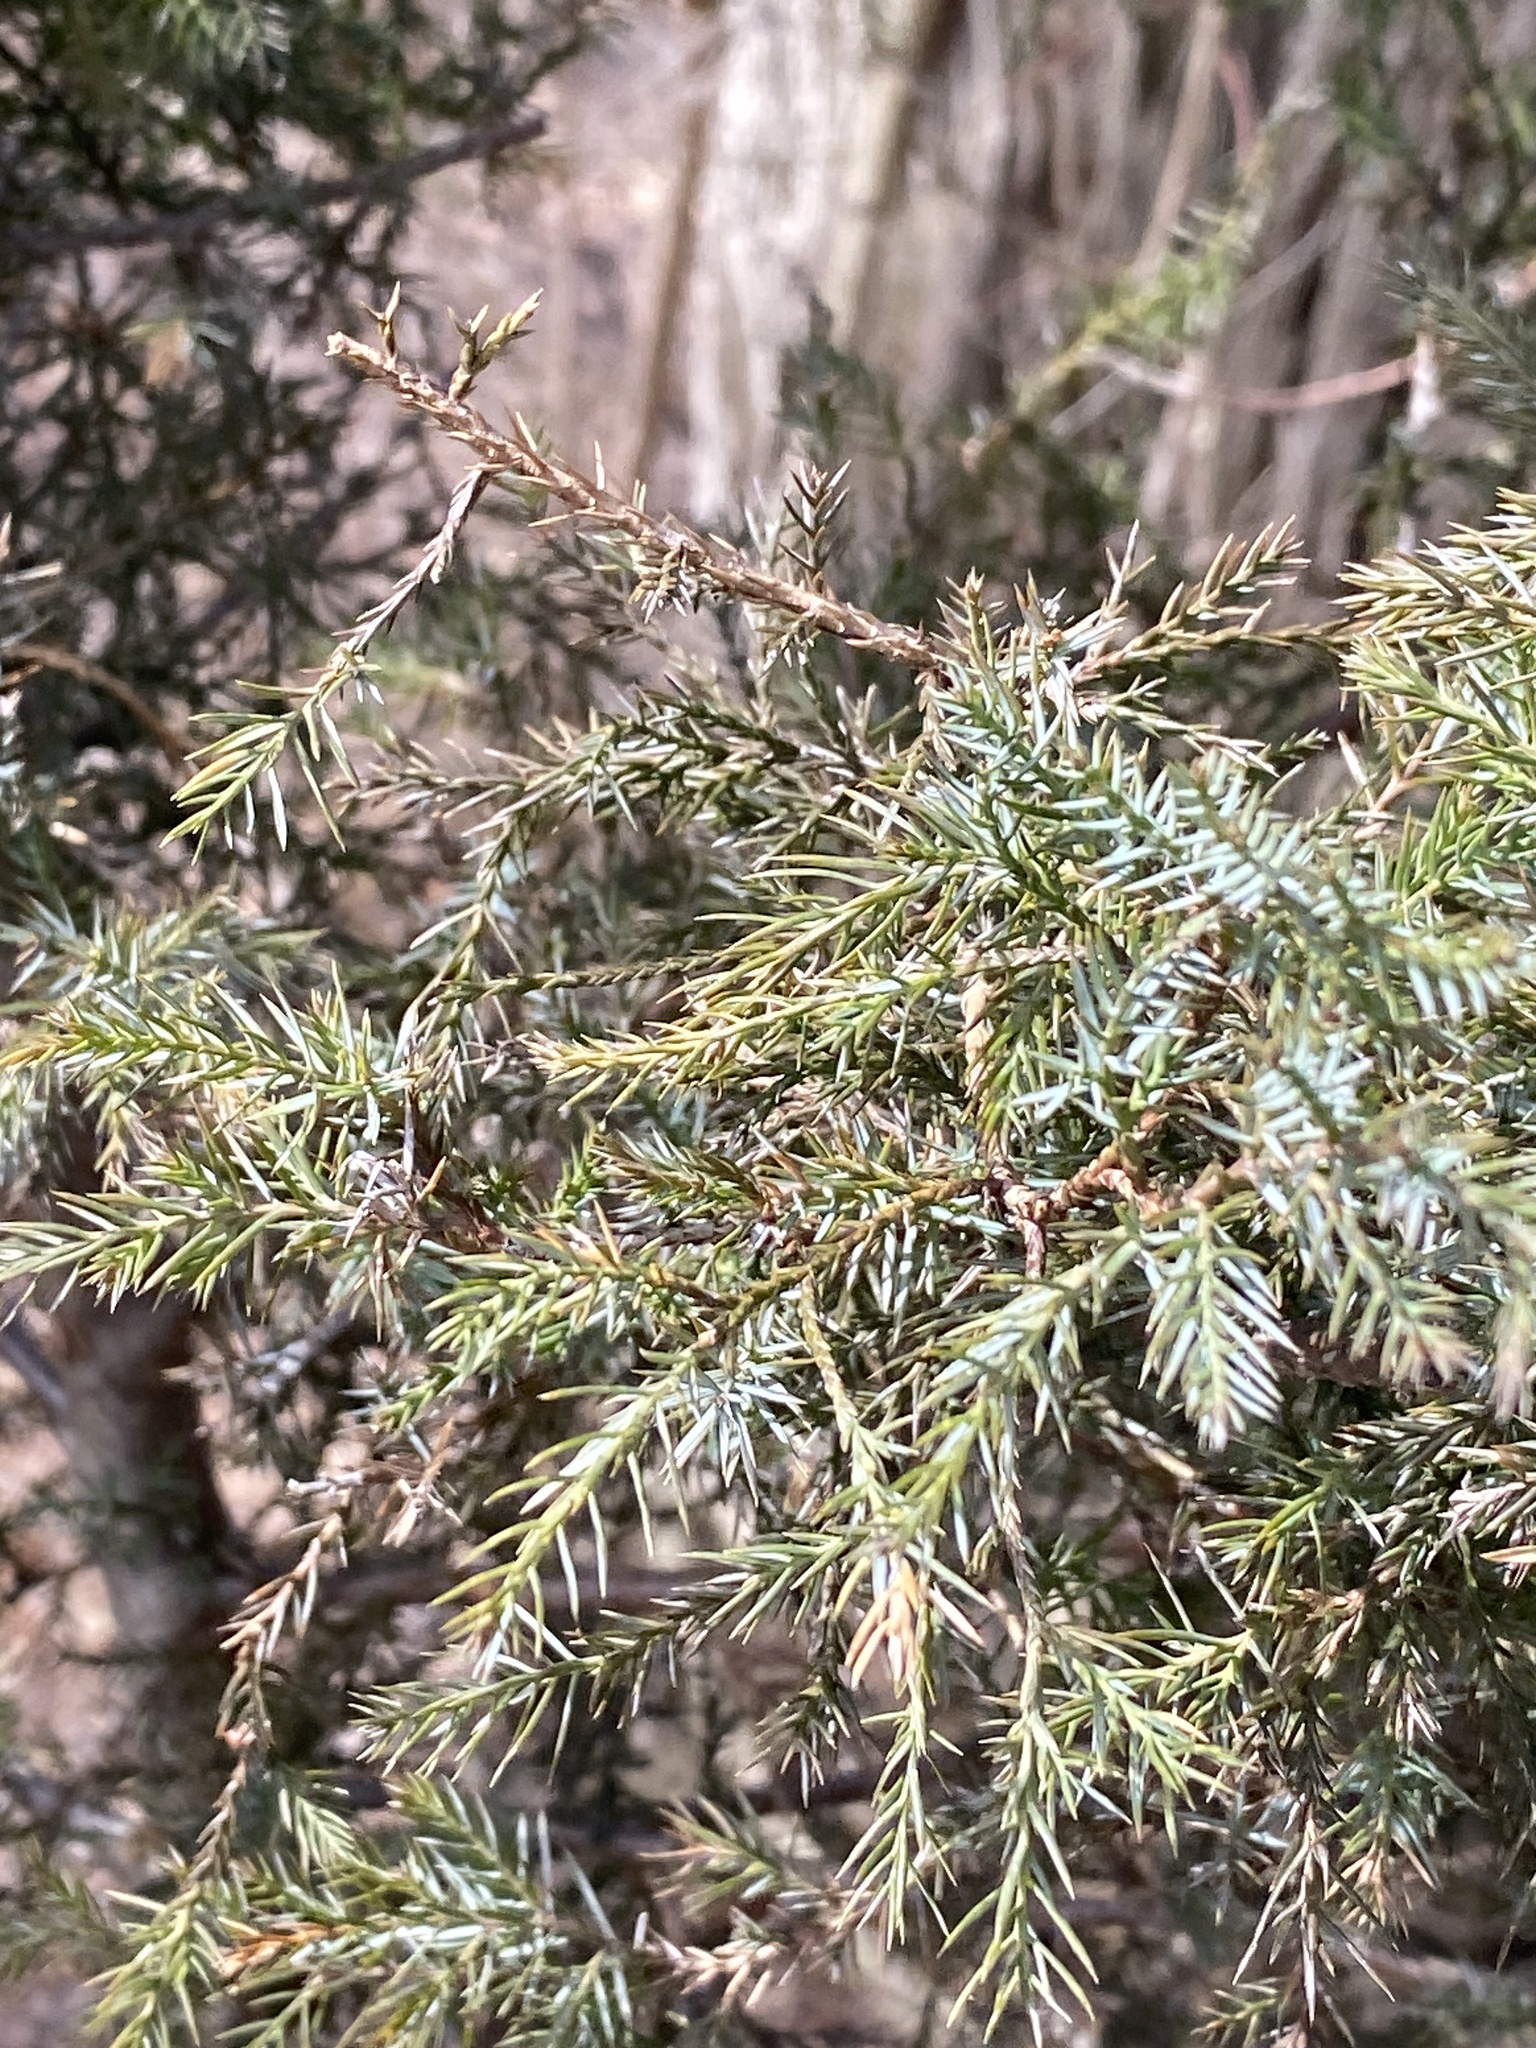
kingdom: Plantae
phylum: Tracheophyta
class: Pinopsida
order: Pinales
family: Cupressaceae
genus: Juniperus
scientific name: Juniperus virginiana
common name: Red juniper
